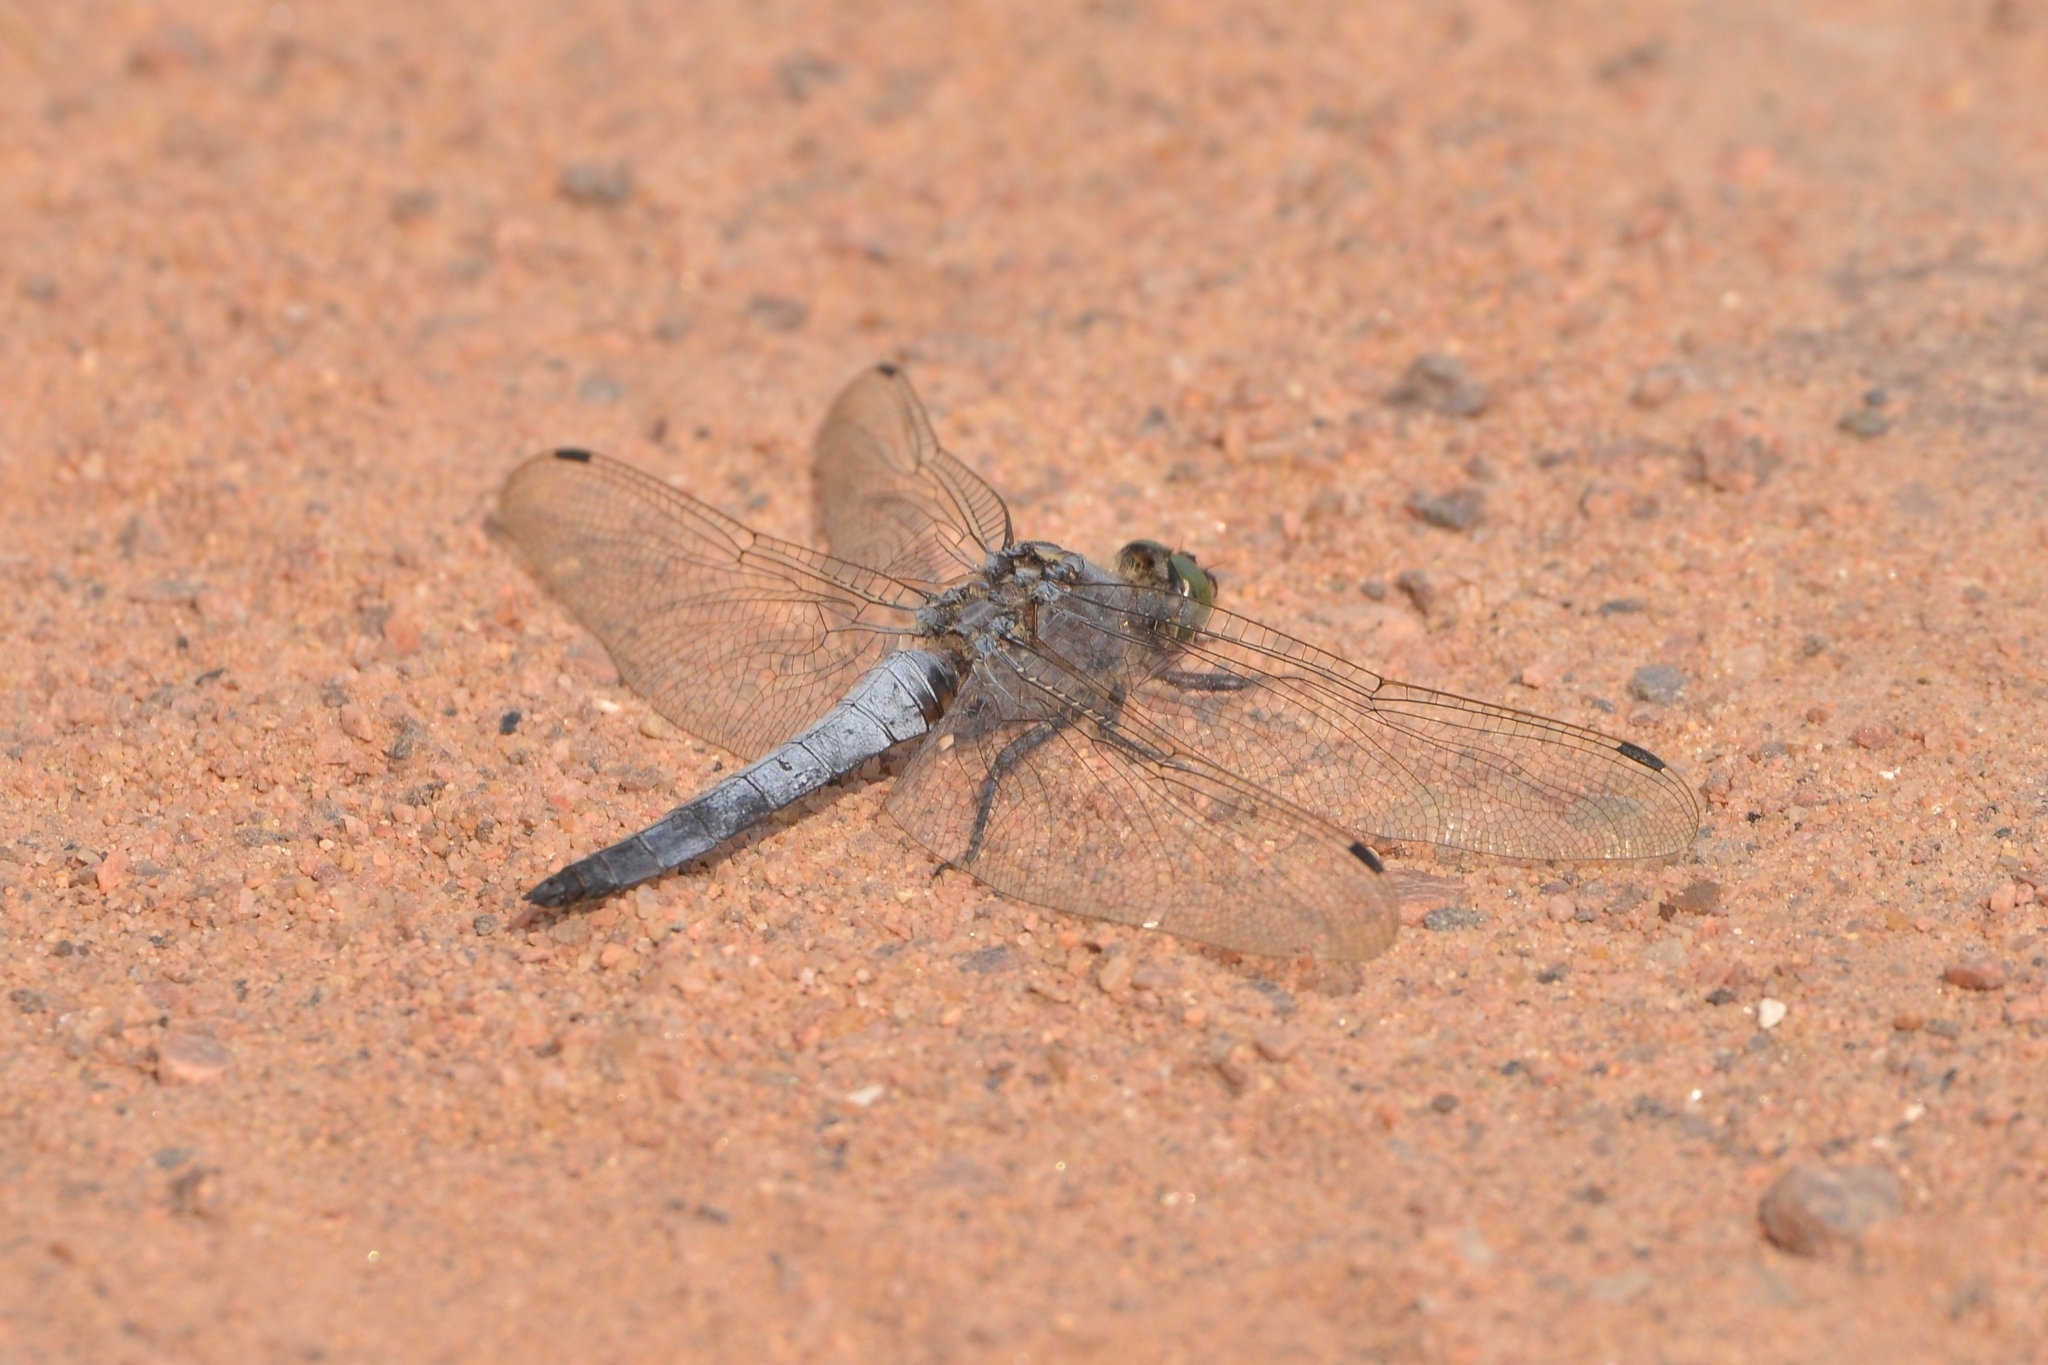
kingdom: Animalia
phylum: Arthropoda
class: Insecta
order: Odonata
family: Libellulidae
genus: Orthetrum
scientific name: Orthetrum cancellatum
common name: Black-tailed skimmer
